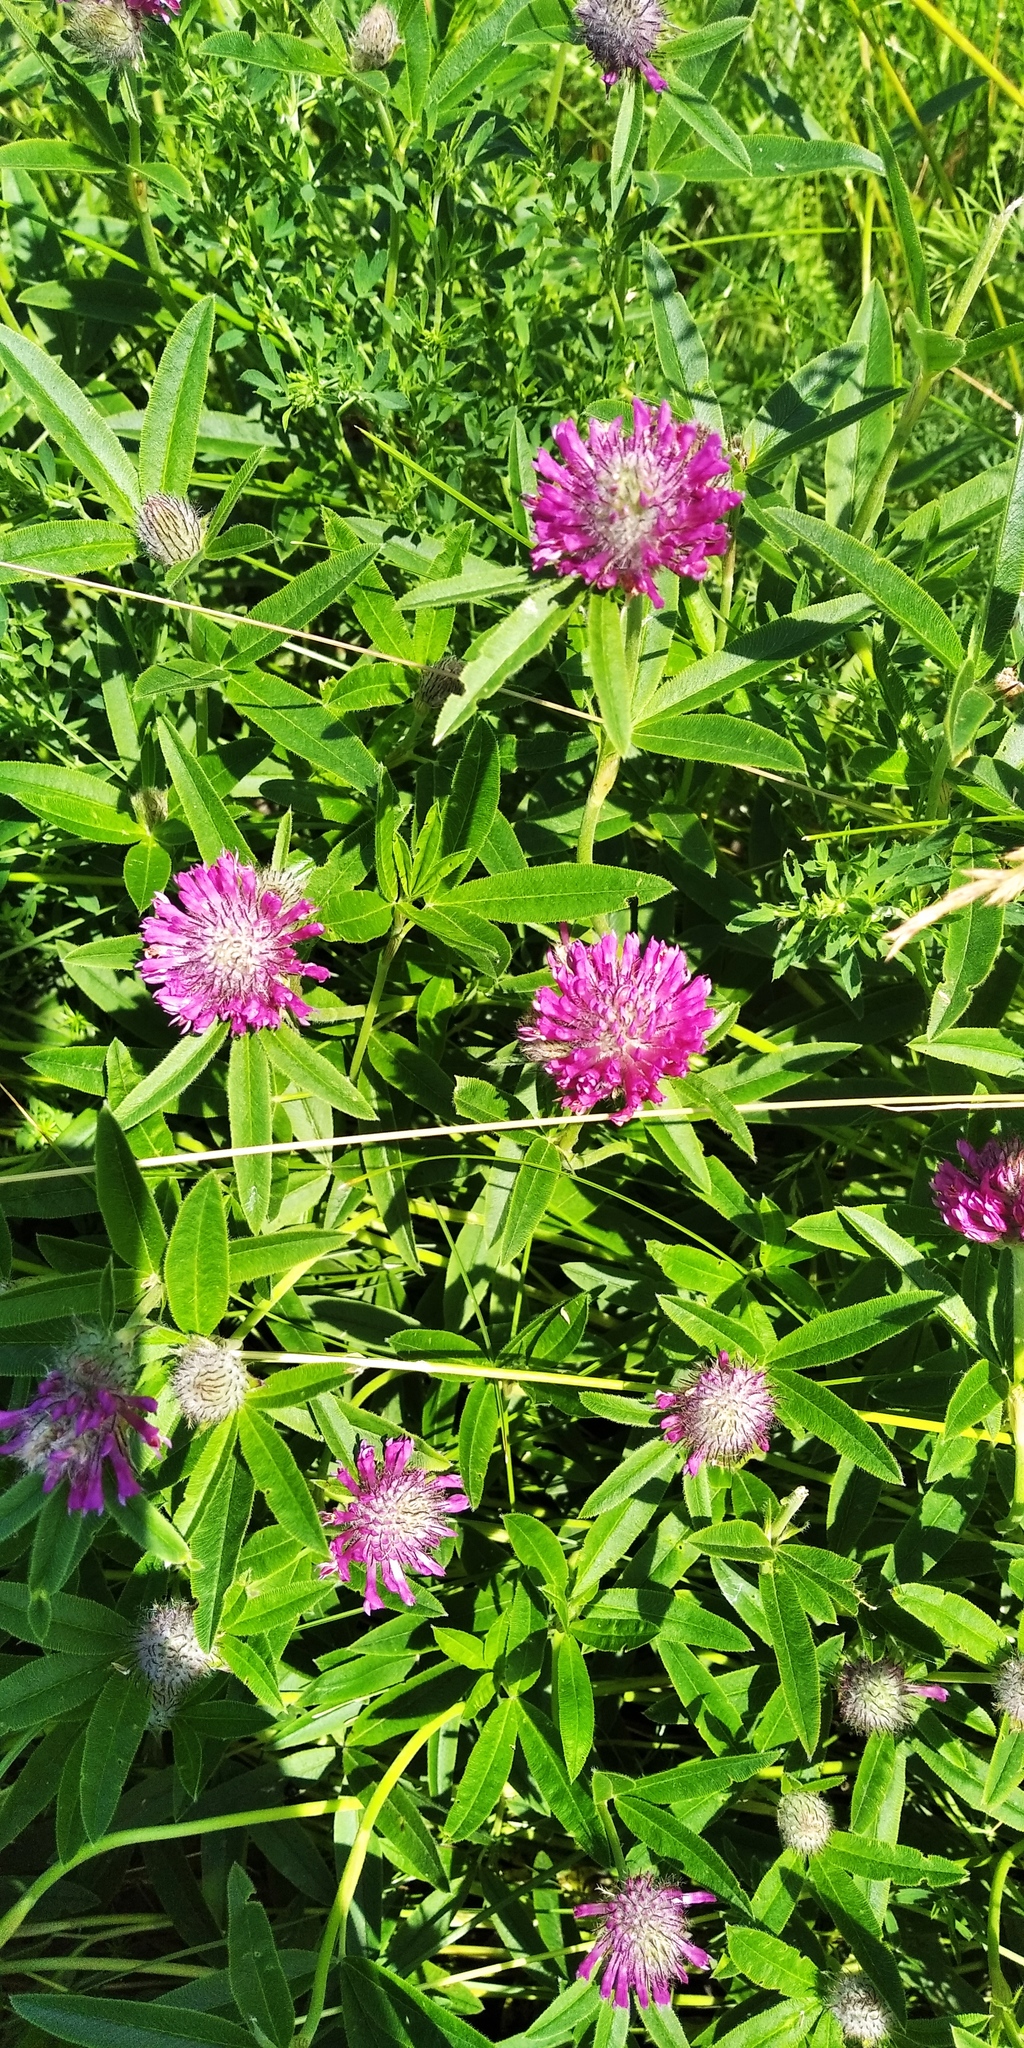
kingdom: Plantae
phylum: Tracheophyta
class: Magnoliopsida
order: Fabales
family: Fabaceae
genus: Trifolium
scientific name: Trifolium alpestre
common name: Owl-head clover
